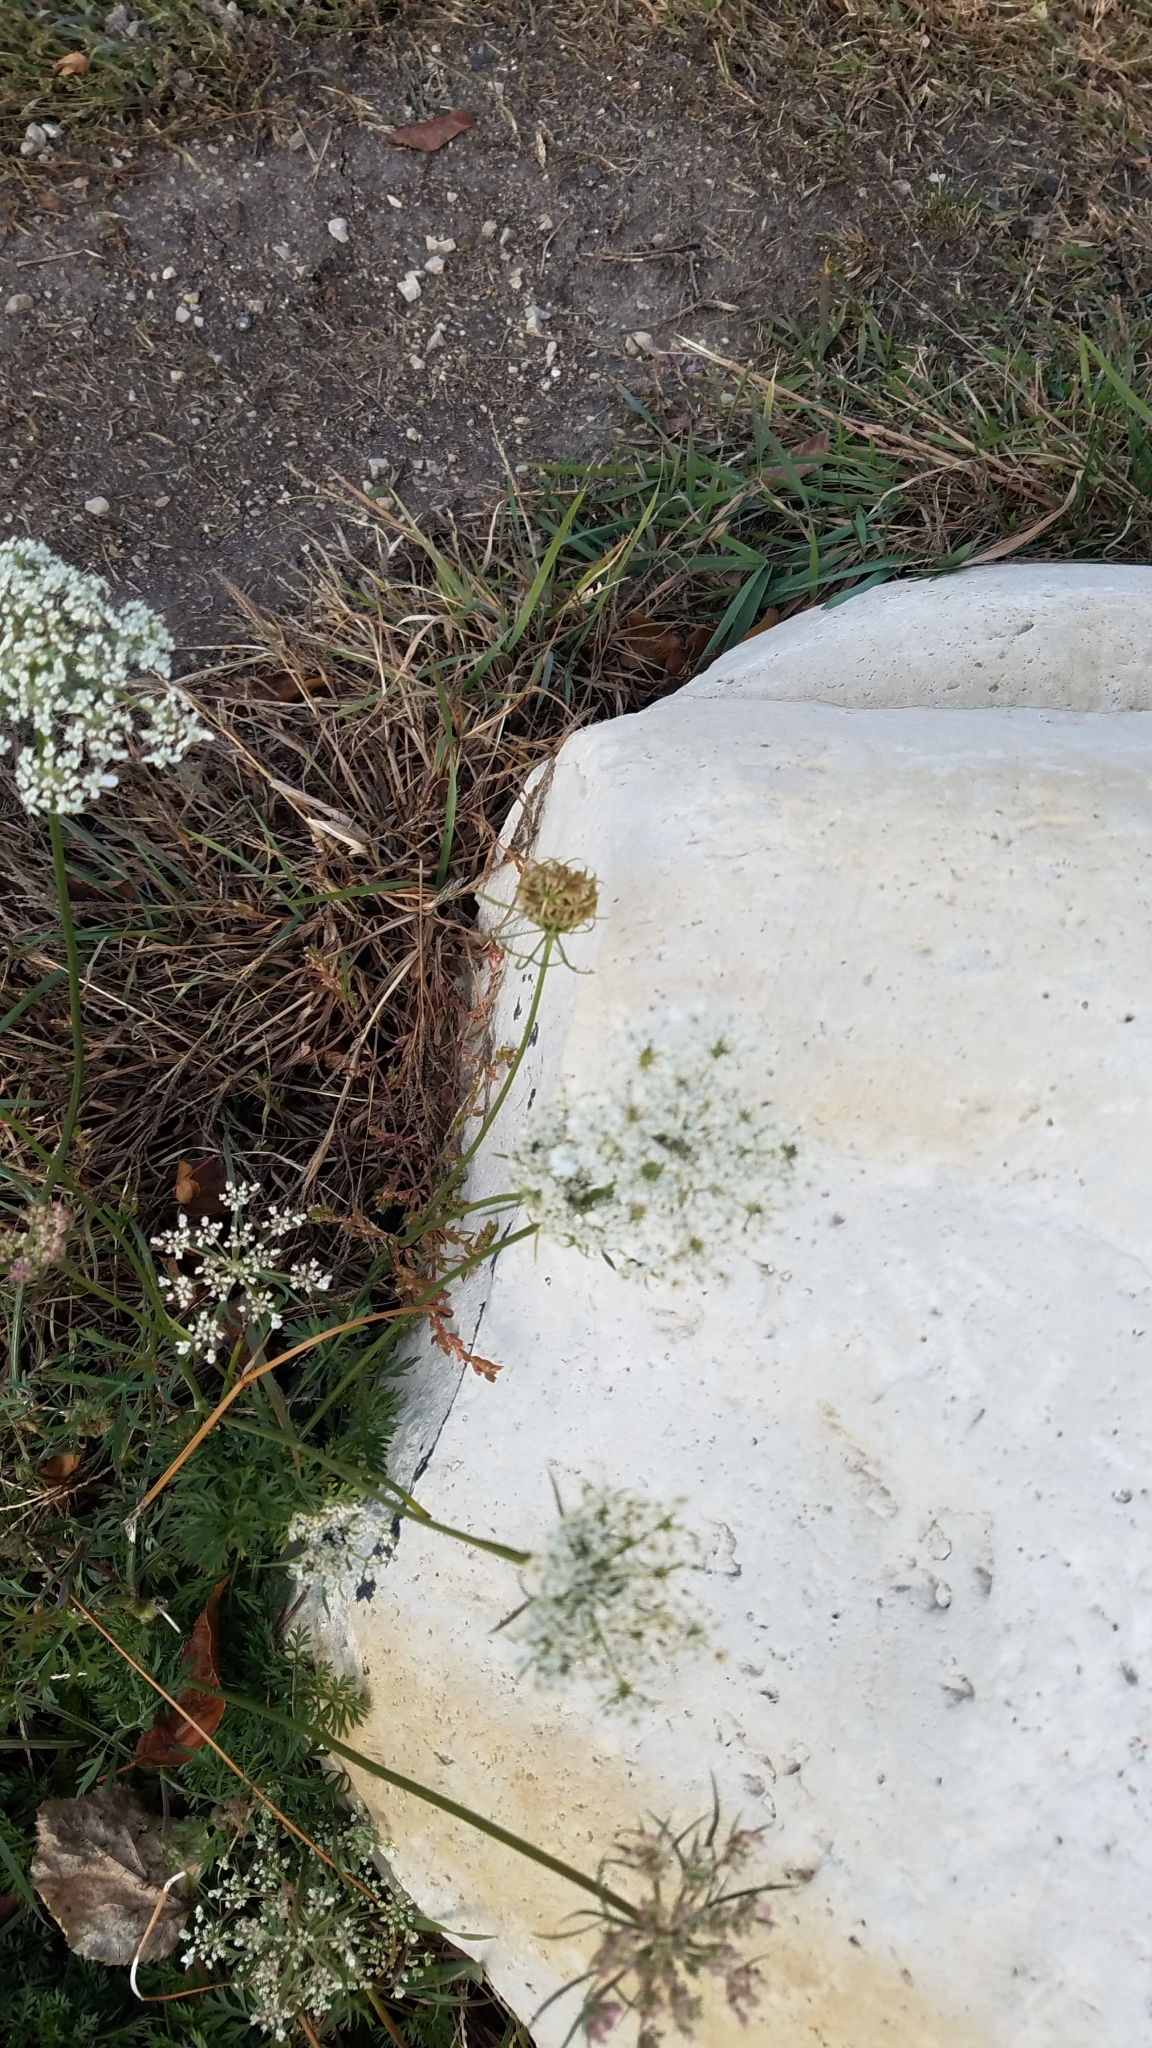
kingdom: Plantae
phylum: Tracheophyta
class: Magnoliopsida
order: Apiales
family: Apiaceae
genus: Daucus
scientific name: Daucus carota
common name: Wild carrot
